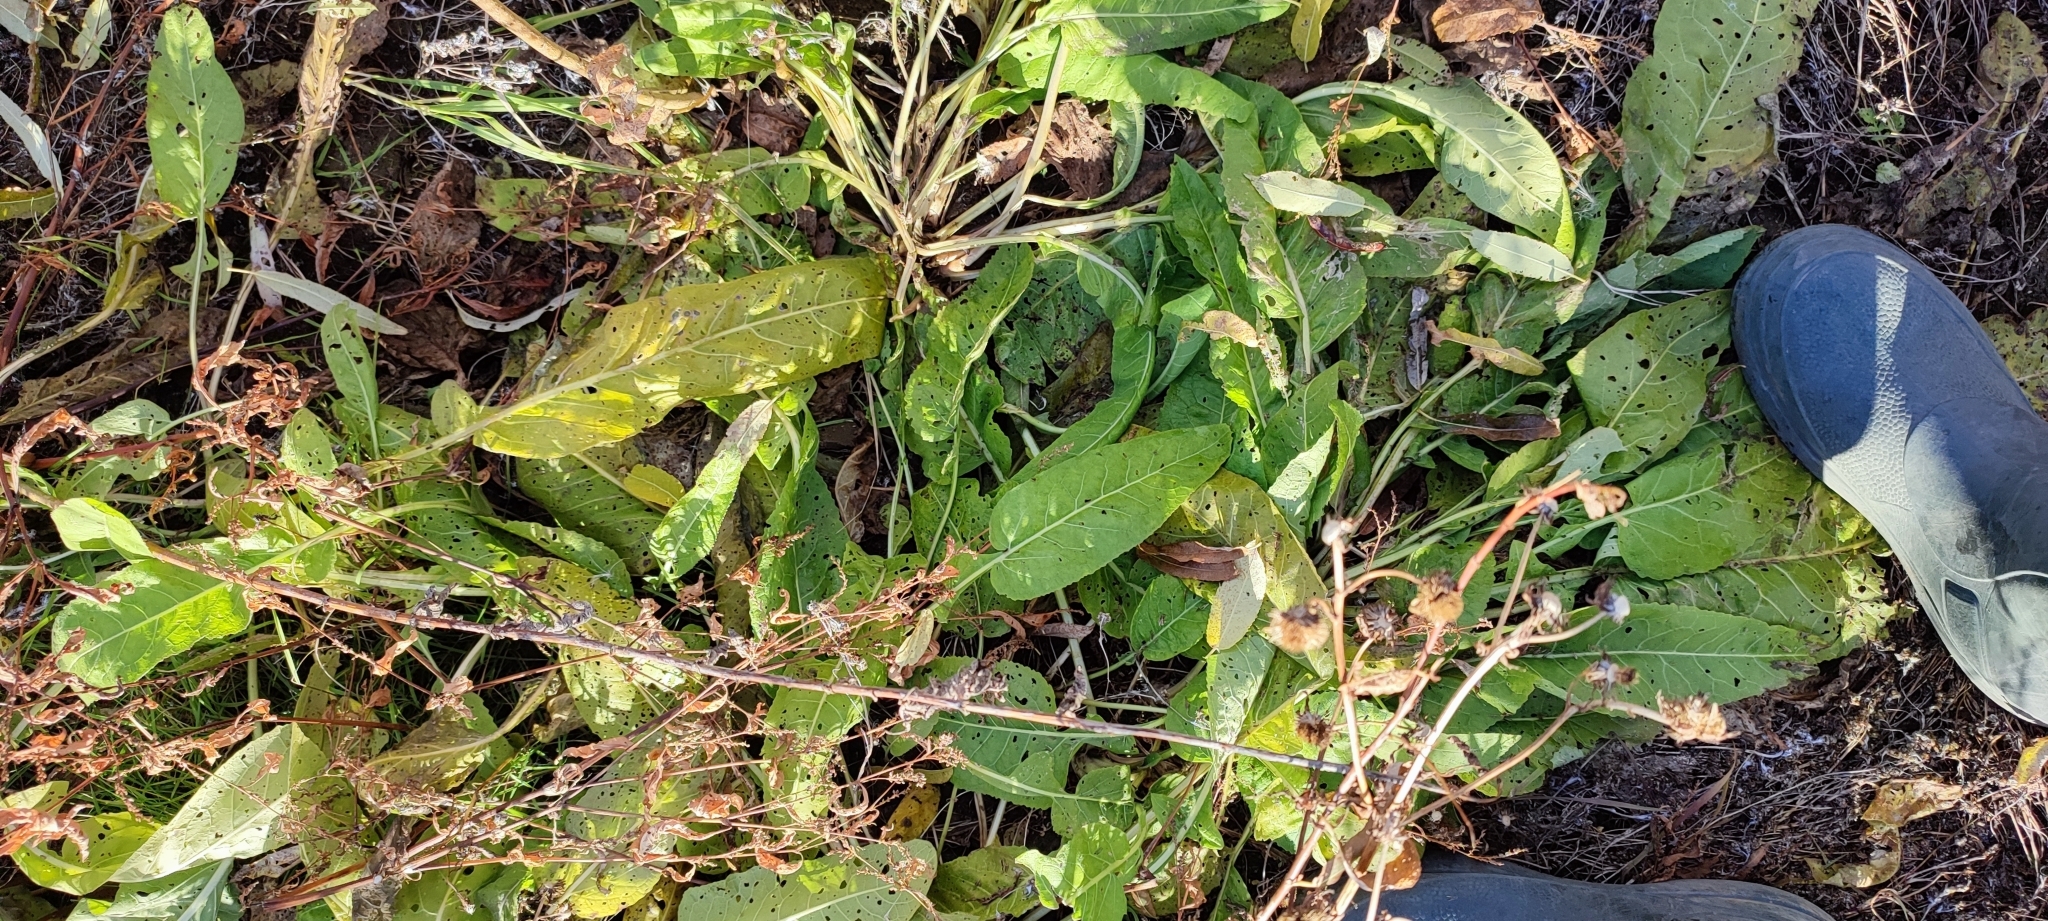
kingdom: Plantae
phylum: Tracheophyta
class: Magnoliopsida
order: Brassicales
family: Brassicaceae
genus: Rorippa
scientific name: Rorippa amphibia
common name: Great yellow-cress
